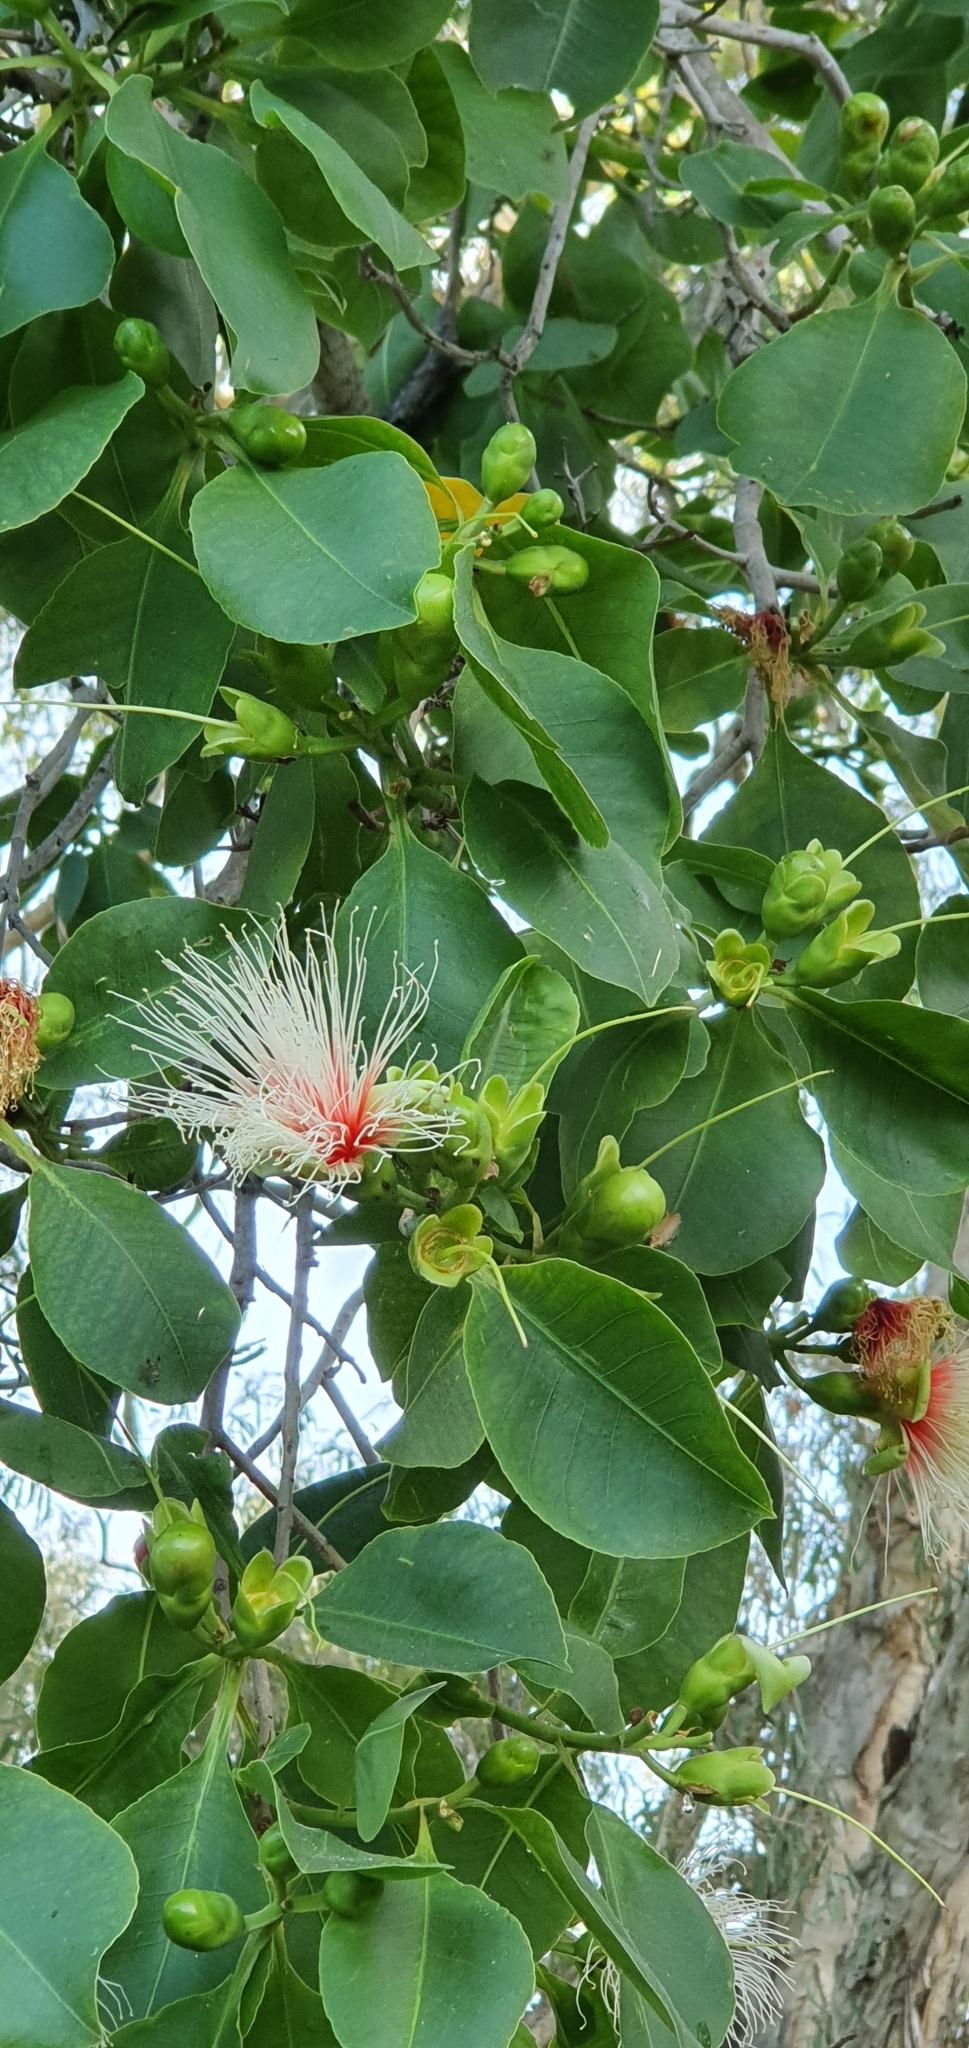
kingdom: Plantae
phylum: Tracheophyta
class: Magnoliopsida
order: Ericales
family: Lecythidaceae
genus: Planchonia
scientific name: Planchonia careya
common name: Cockatoo-apple
